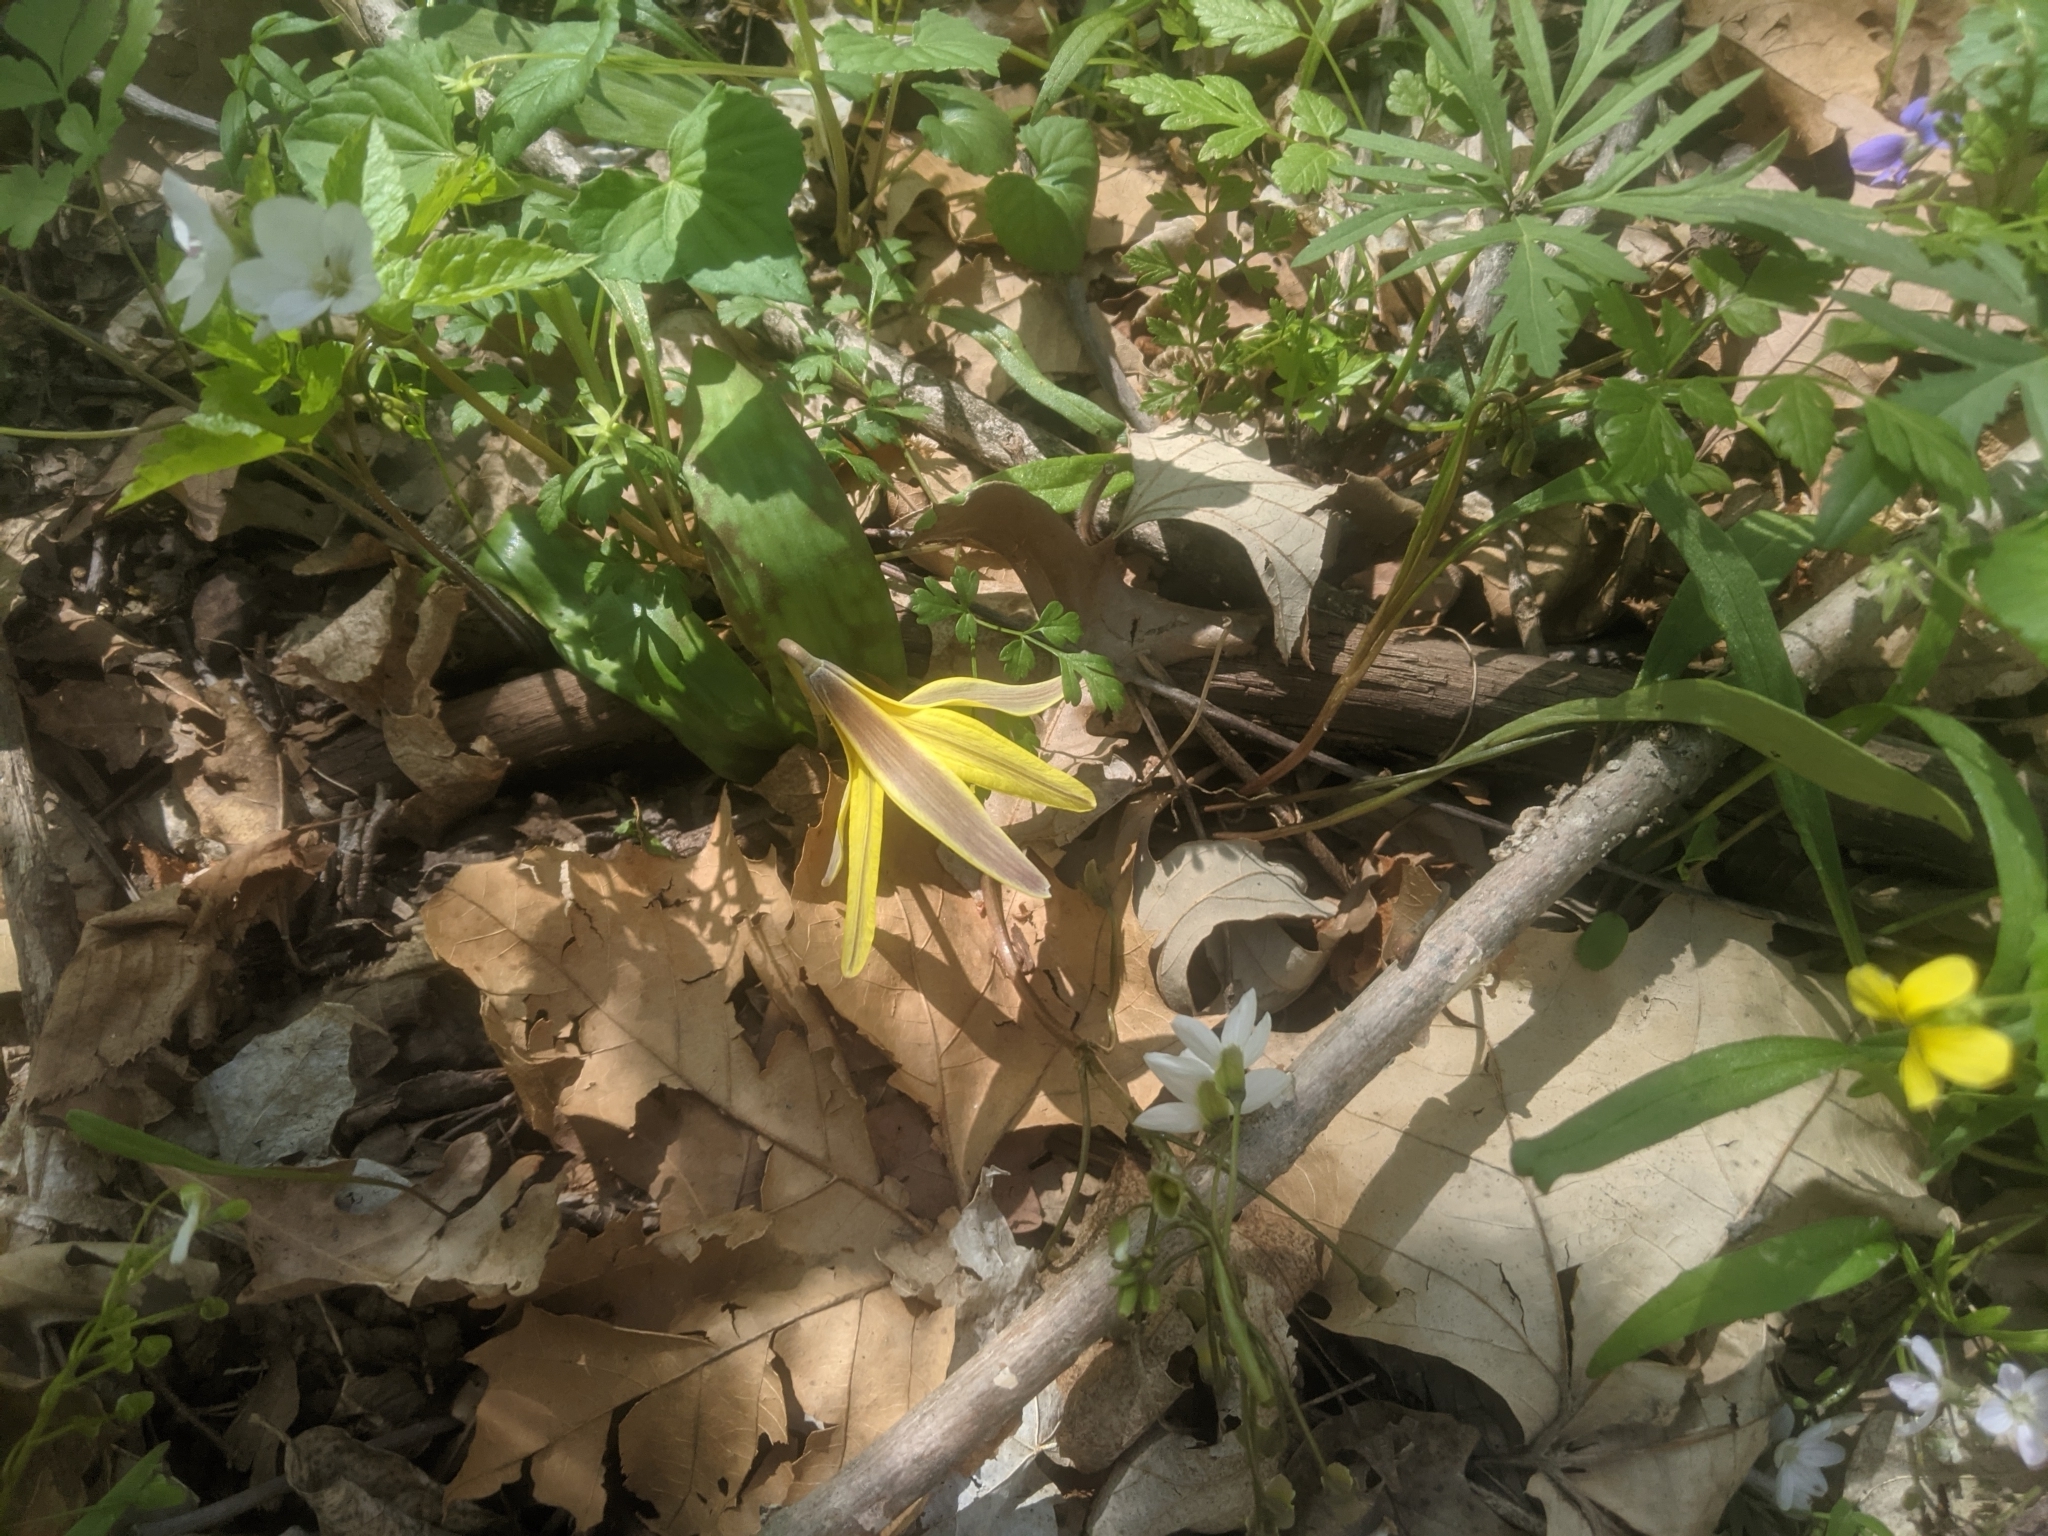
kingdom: Plantae
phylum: Tracheophyta
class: Liliopsida
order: Liliales
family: Liliaceae
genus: Erythronium
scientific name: Erythronium americanum
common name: Yellow adder's-tongue
